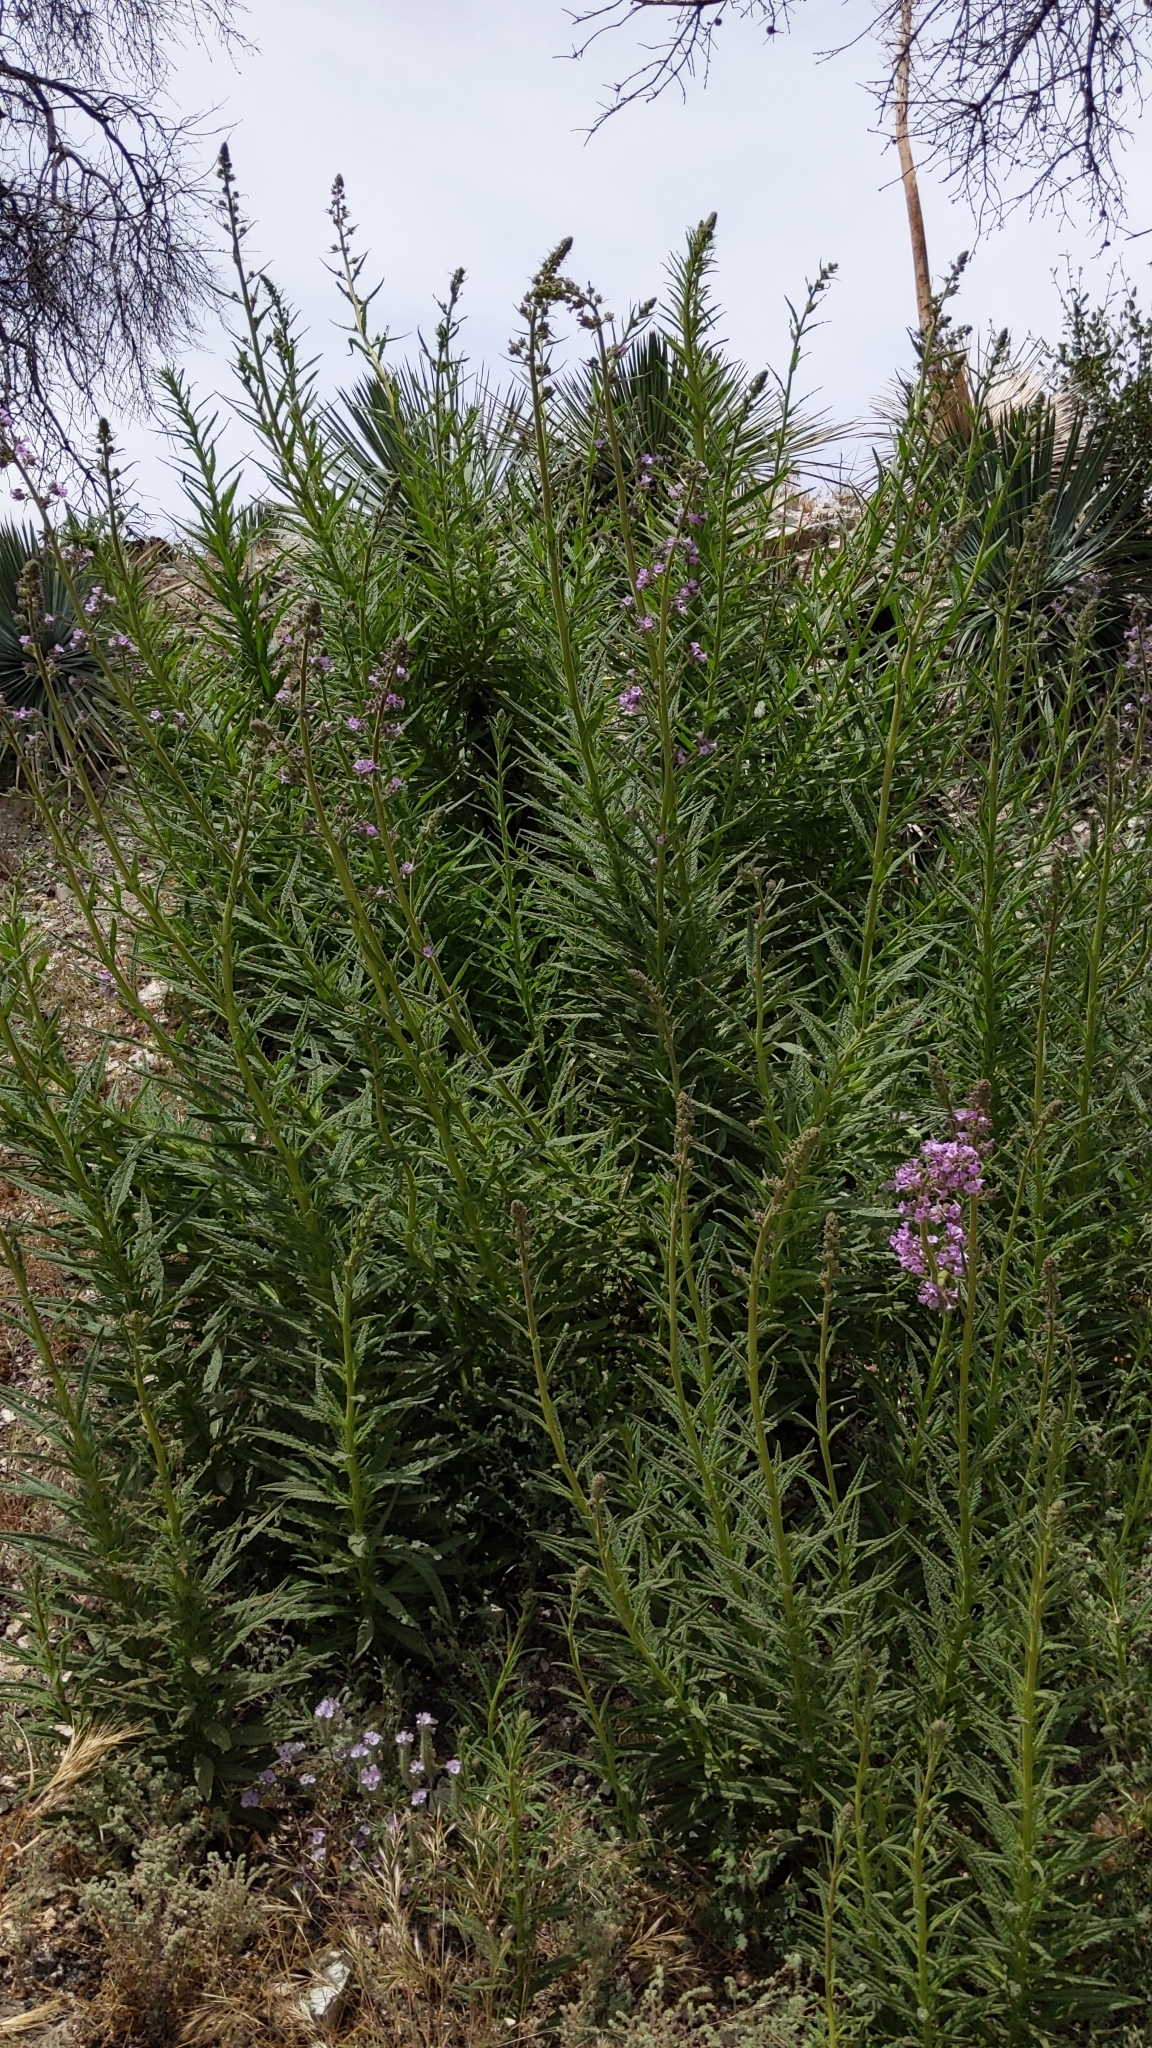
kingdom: Plantae
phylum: Tracheophyta
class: Magnoliopsida
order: Boraginales
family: Namaceae
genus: Turricula
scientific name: Turricula parryi
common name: Poodle-dog-bush
